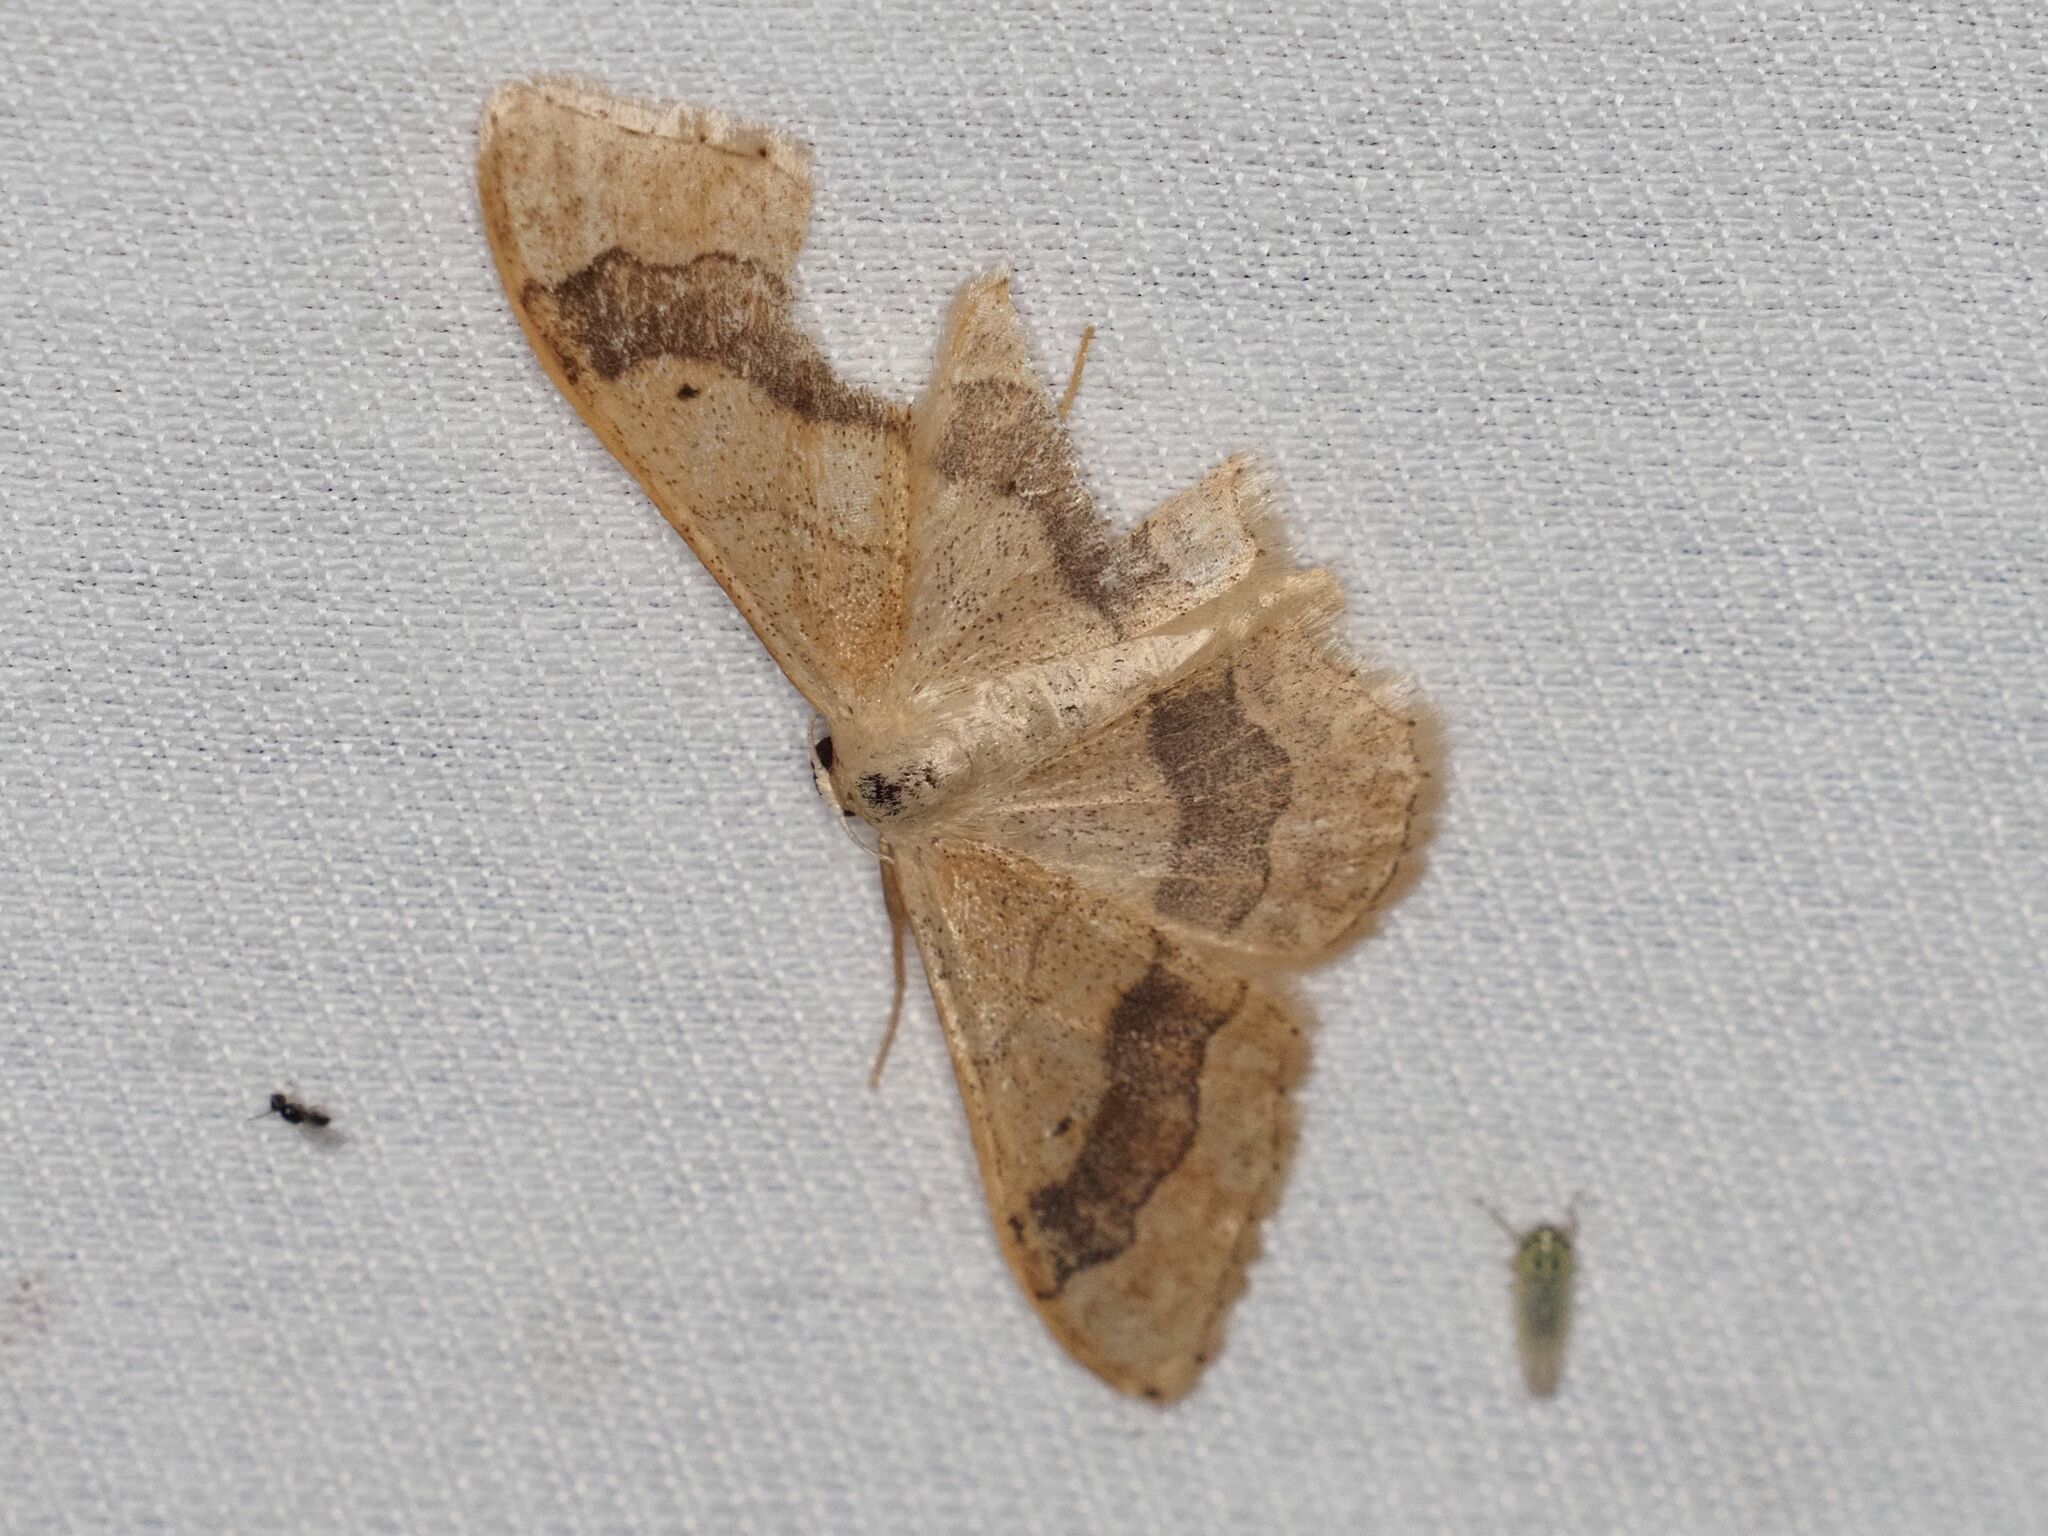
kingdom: Animalia
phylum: Arthropoda
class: Insecta
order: Lepidoptera
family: Geometridae
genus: Idaea
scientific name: Idaea aversata
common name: Riband wave
